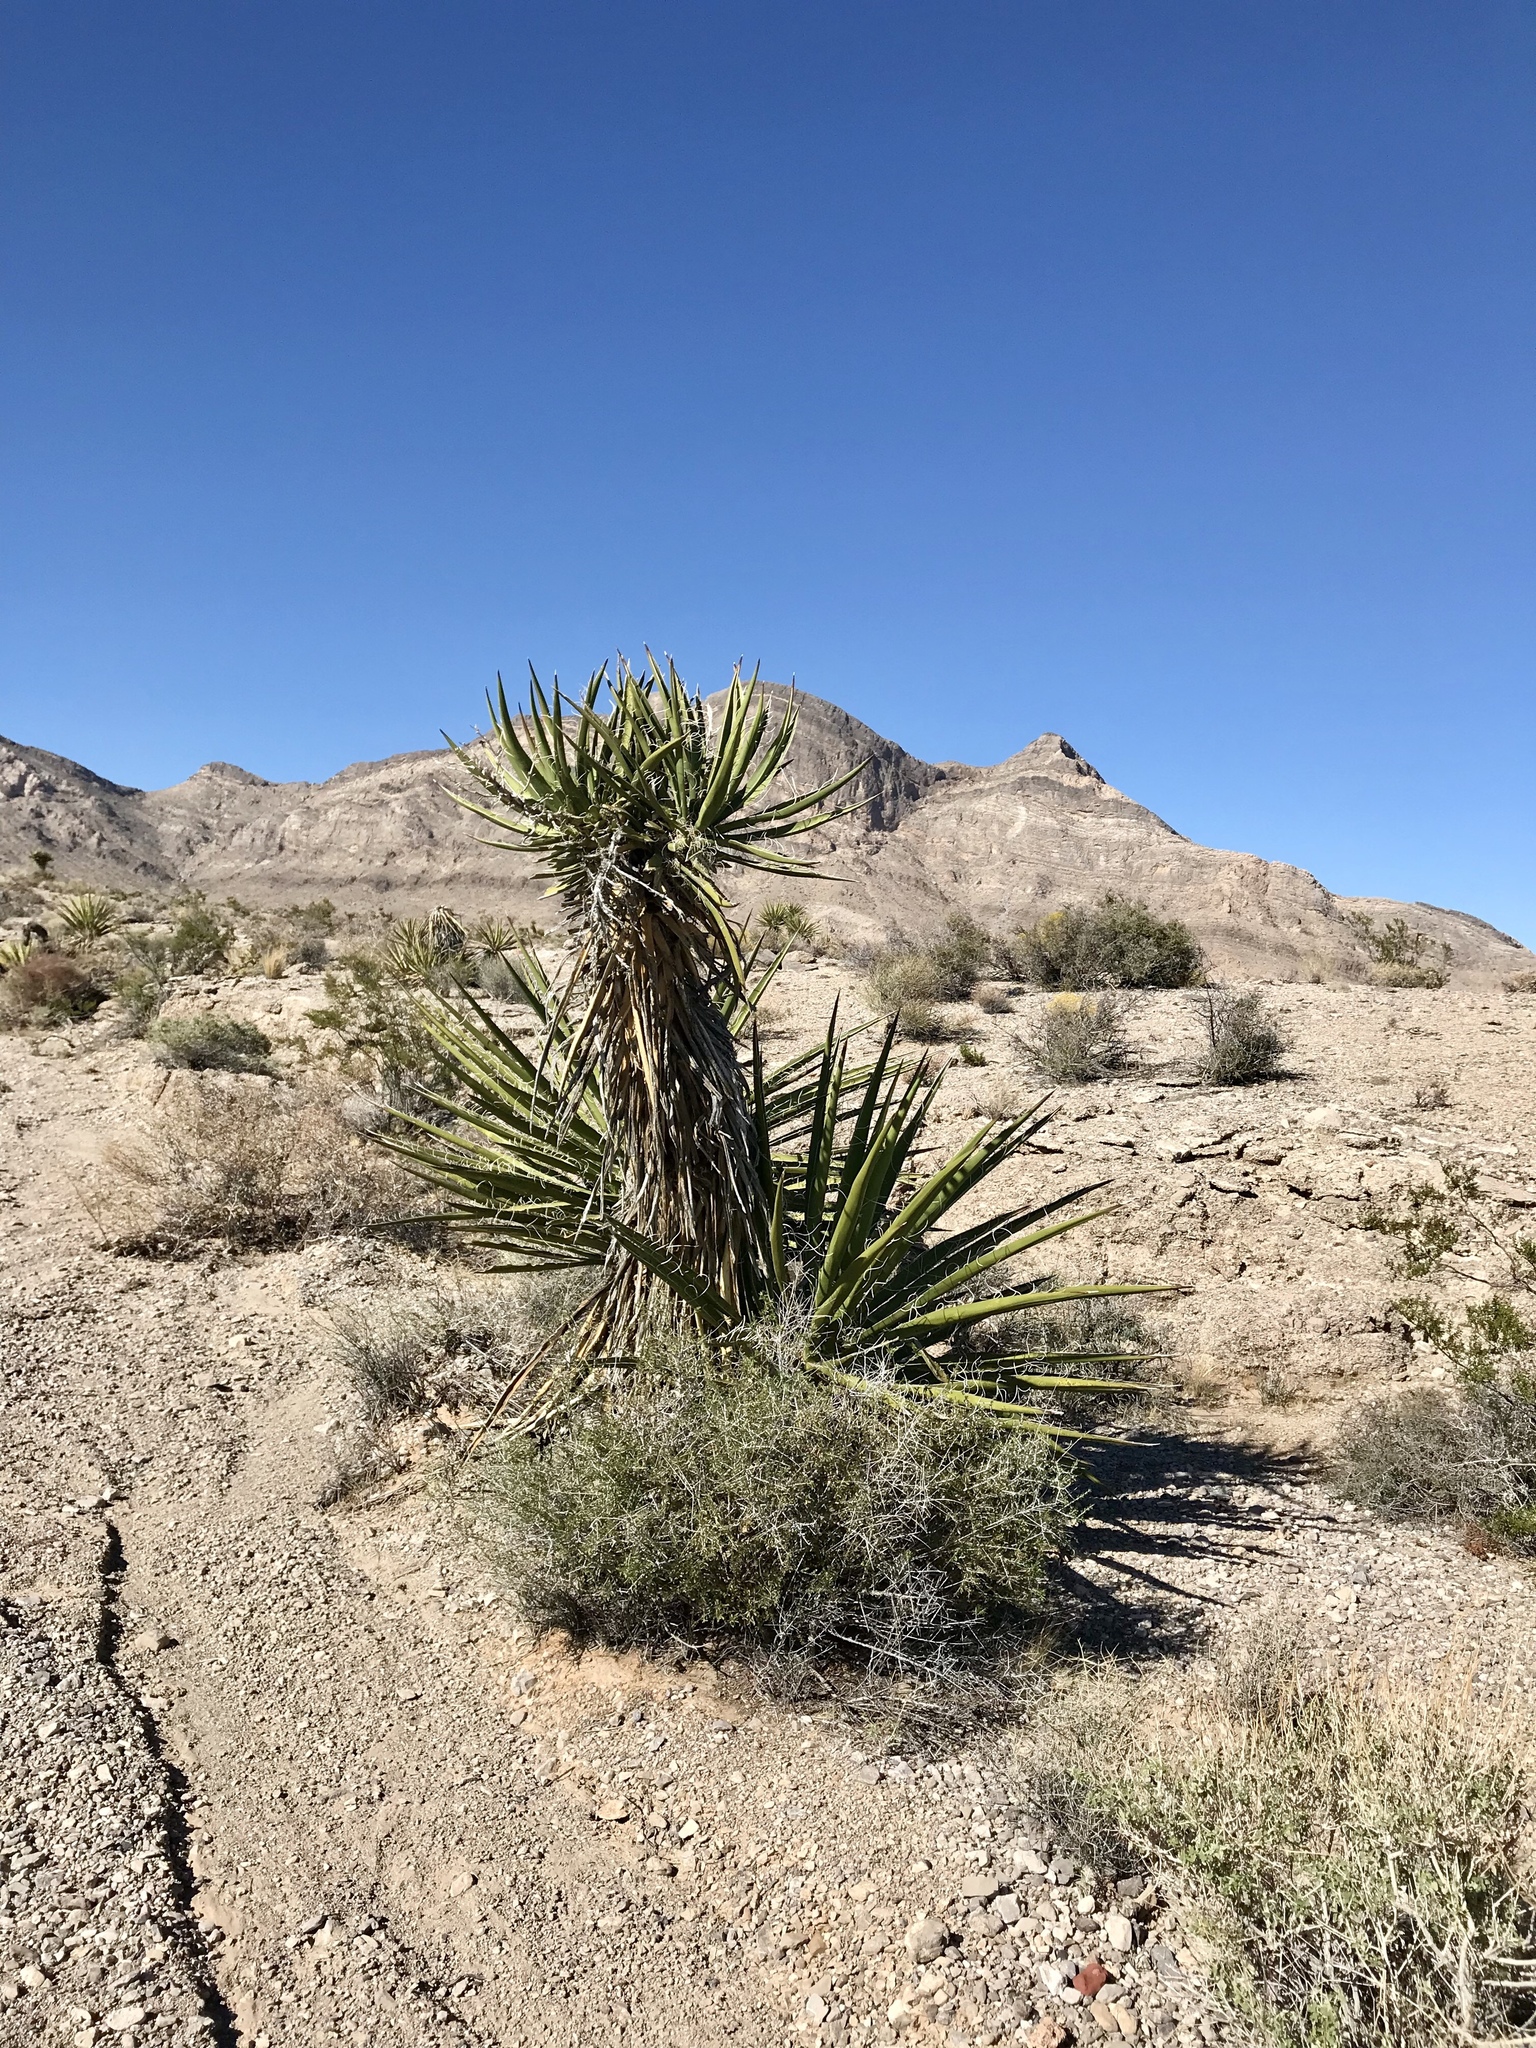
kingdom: Plantae
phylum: Tracheophyta
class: Liliopsida
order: Asparagales
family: Asparagaceae
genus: Yucca
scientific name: Yucca schidigera
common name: Mojave yucca
